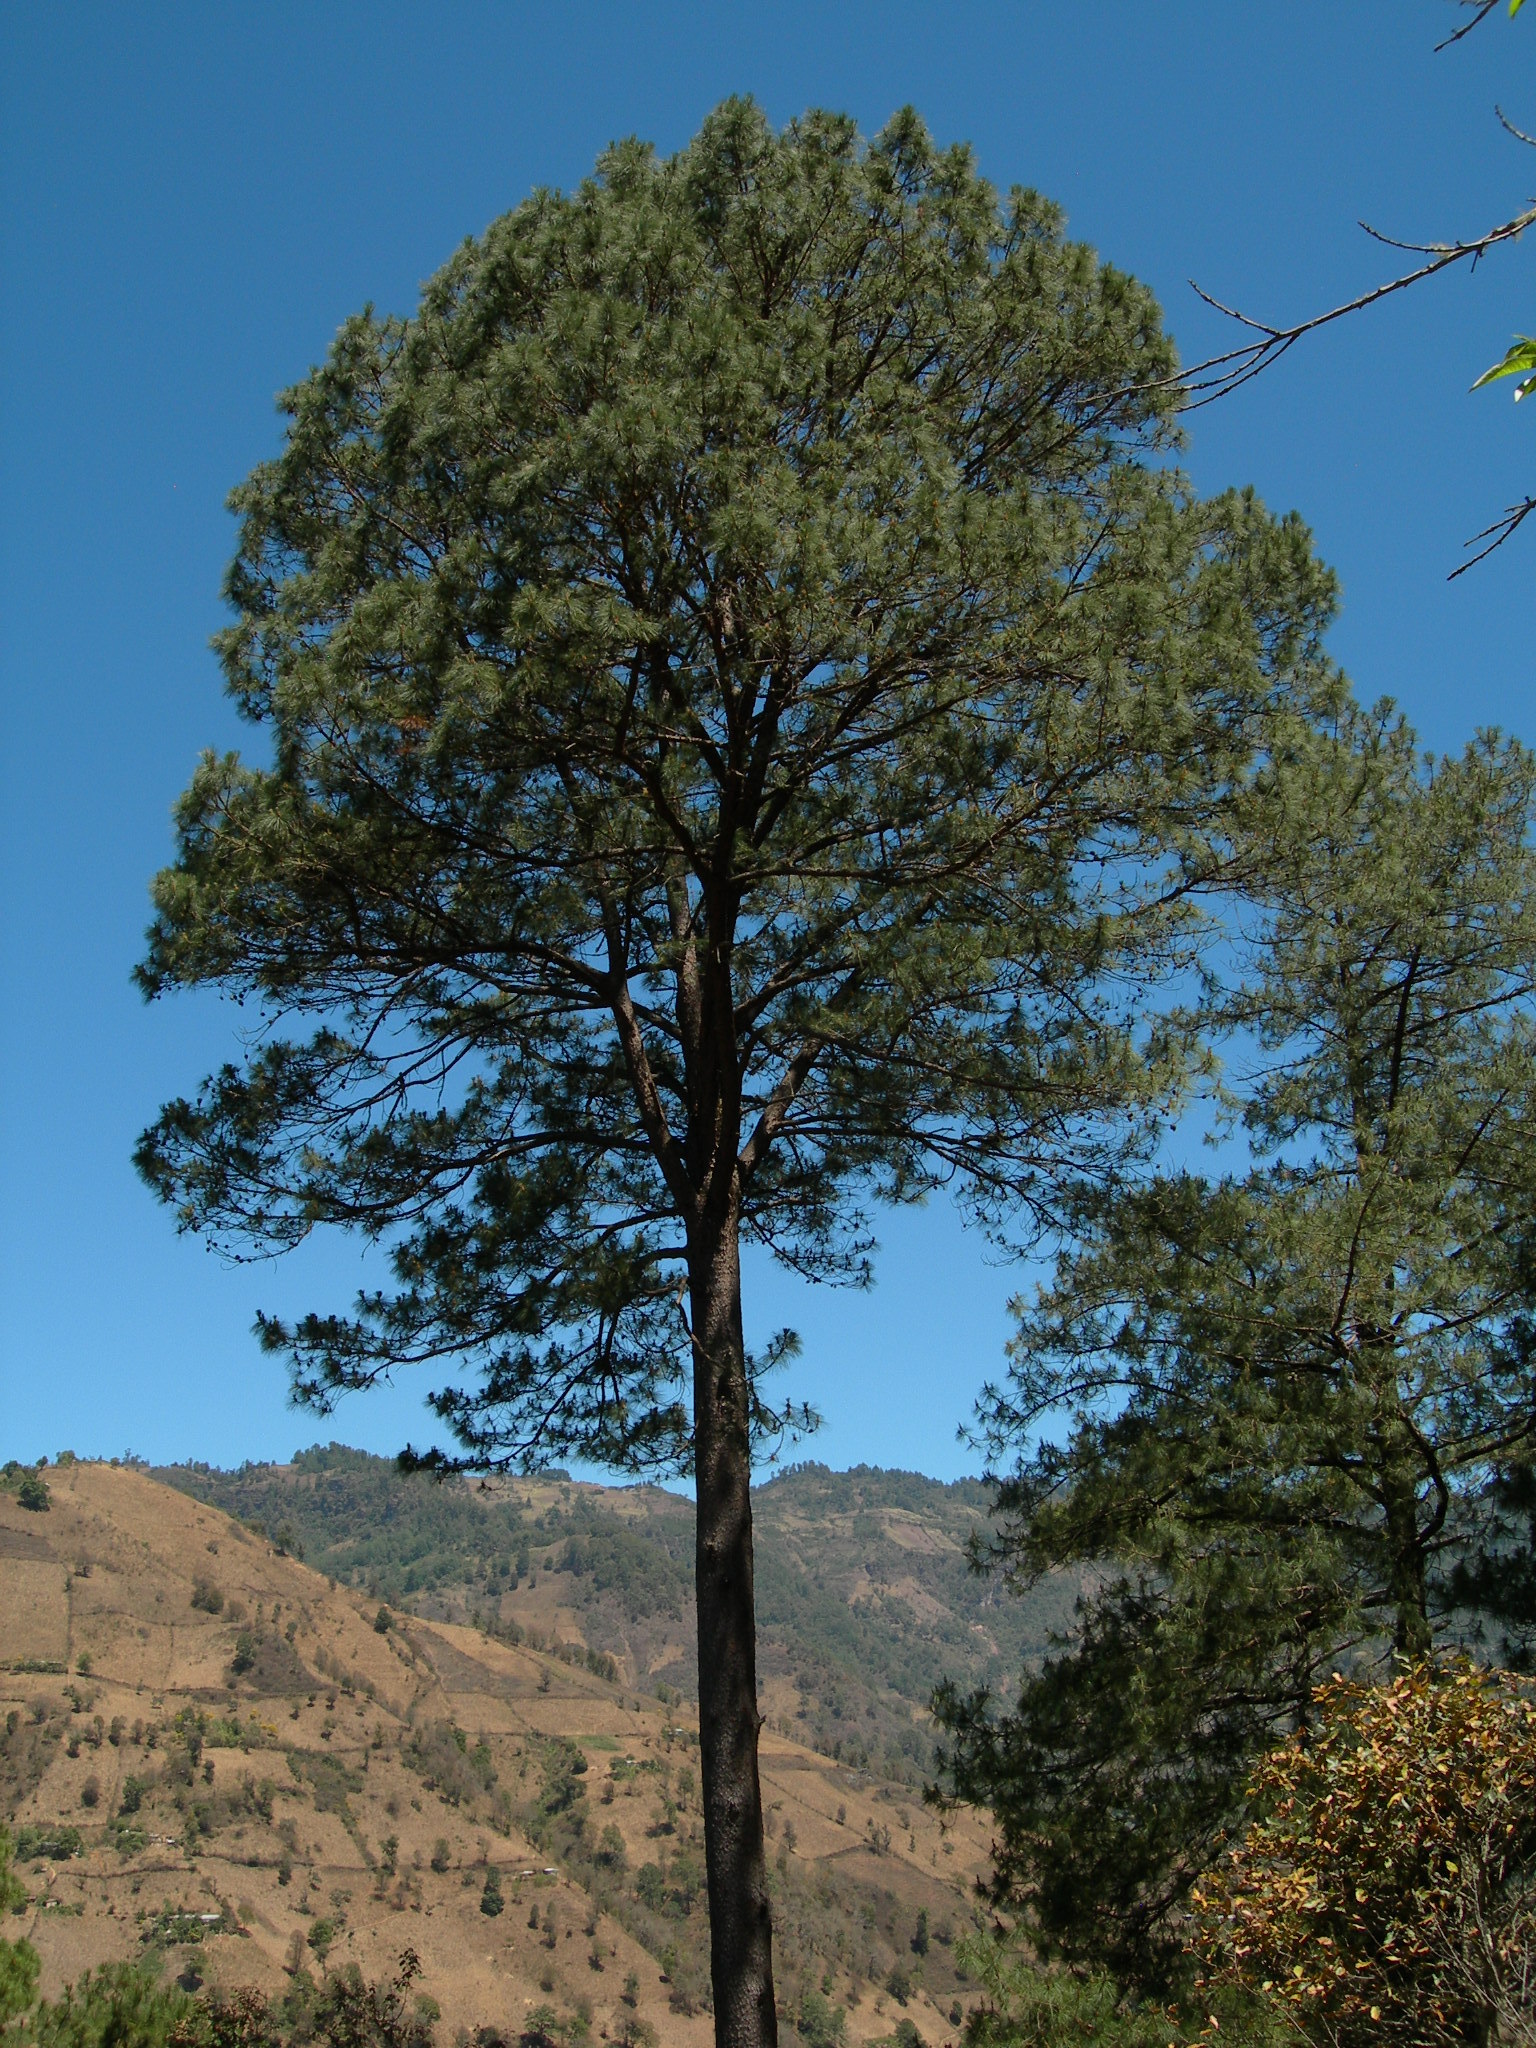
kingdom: Plantae
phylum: Tracheophyta
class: Pinopsida
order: Pinales
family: Pinaceae
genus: Pinus
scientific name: Pinus oocarpa
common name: Egg-cone pine
